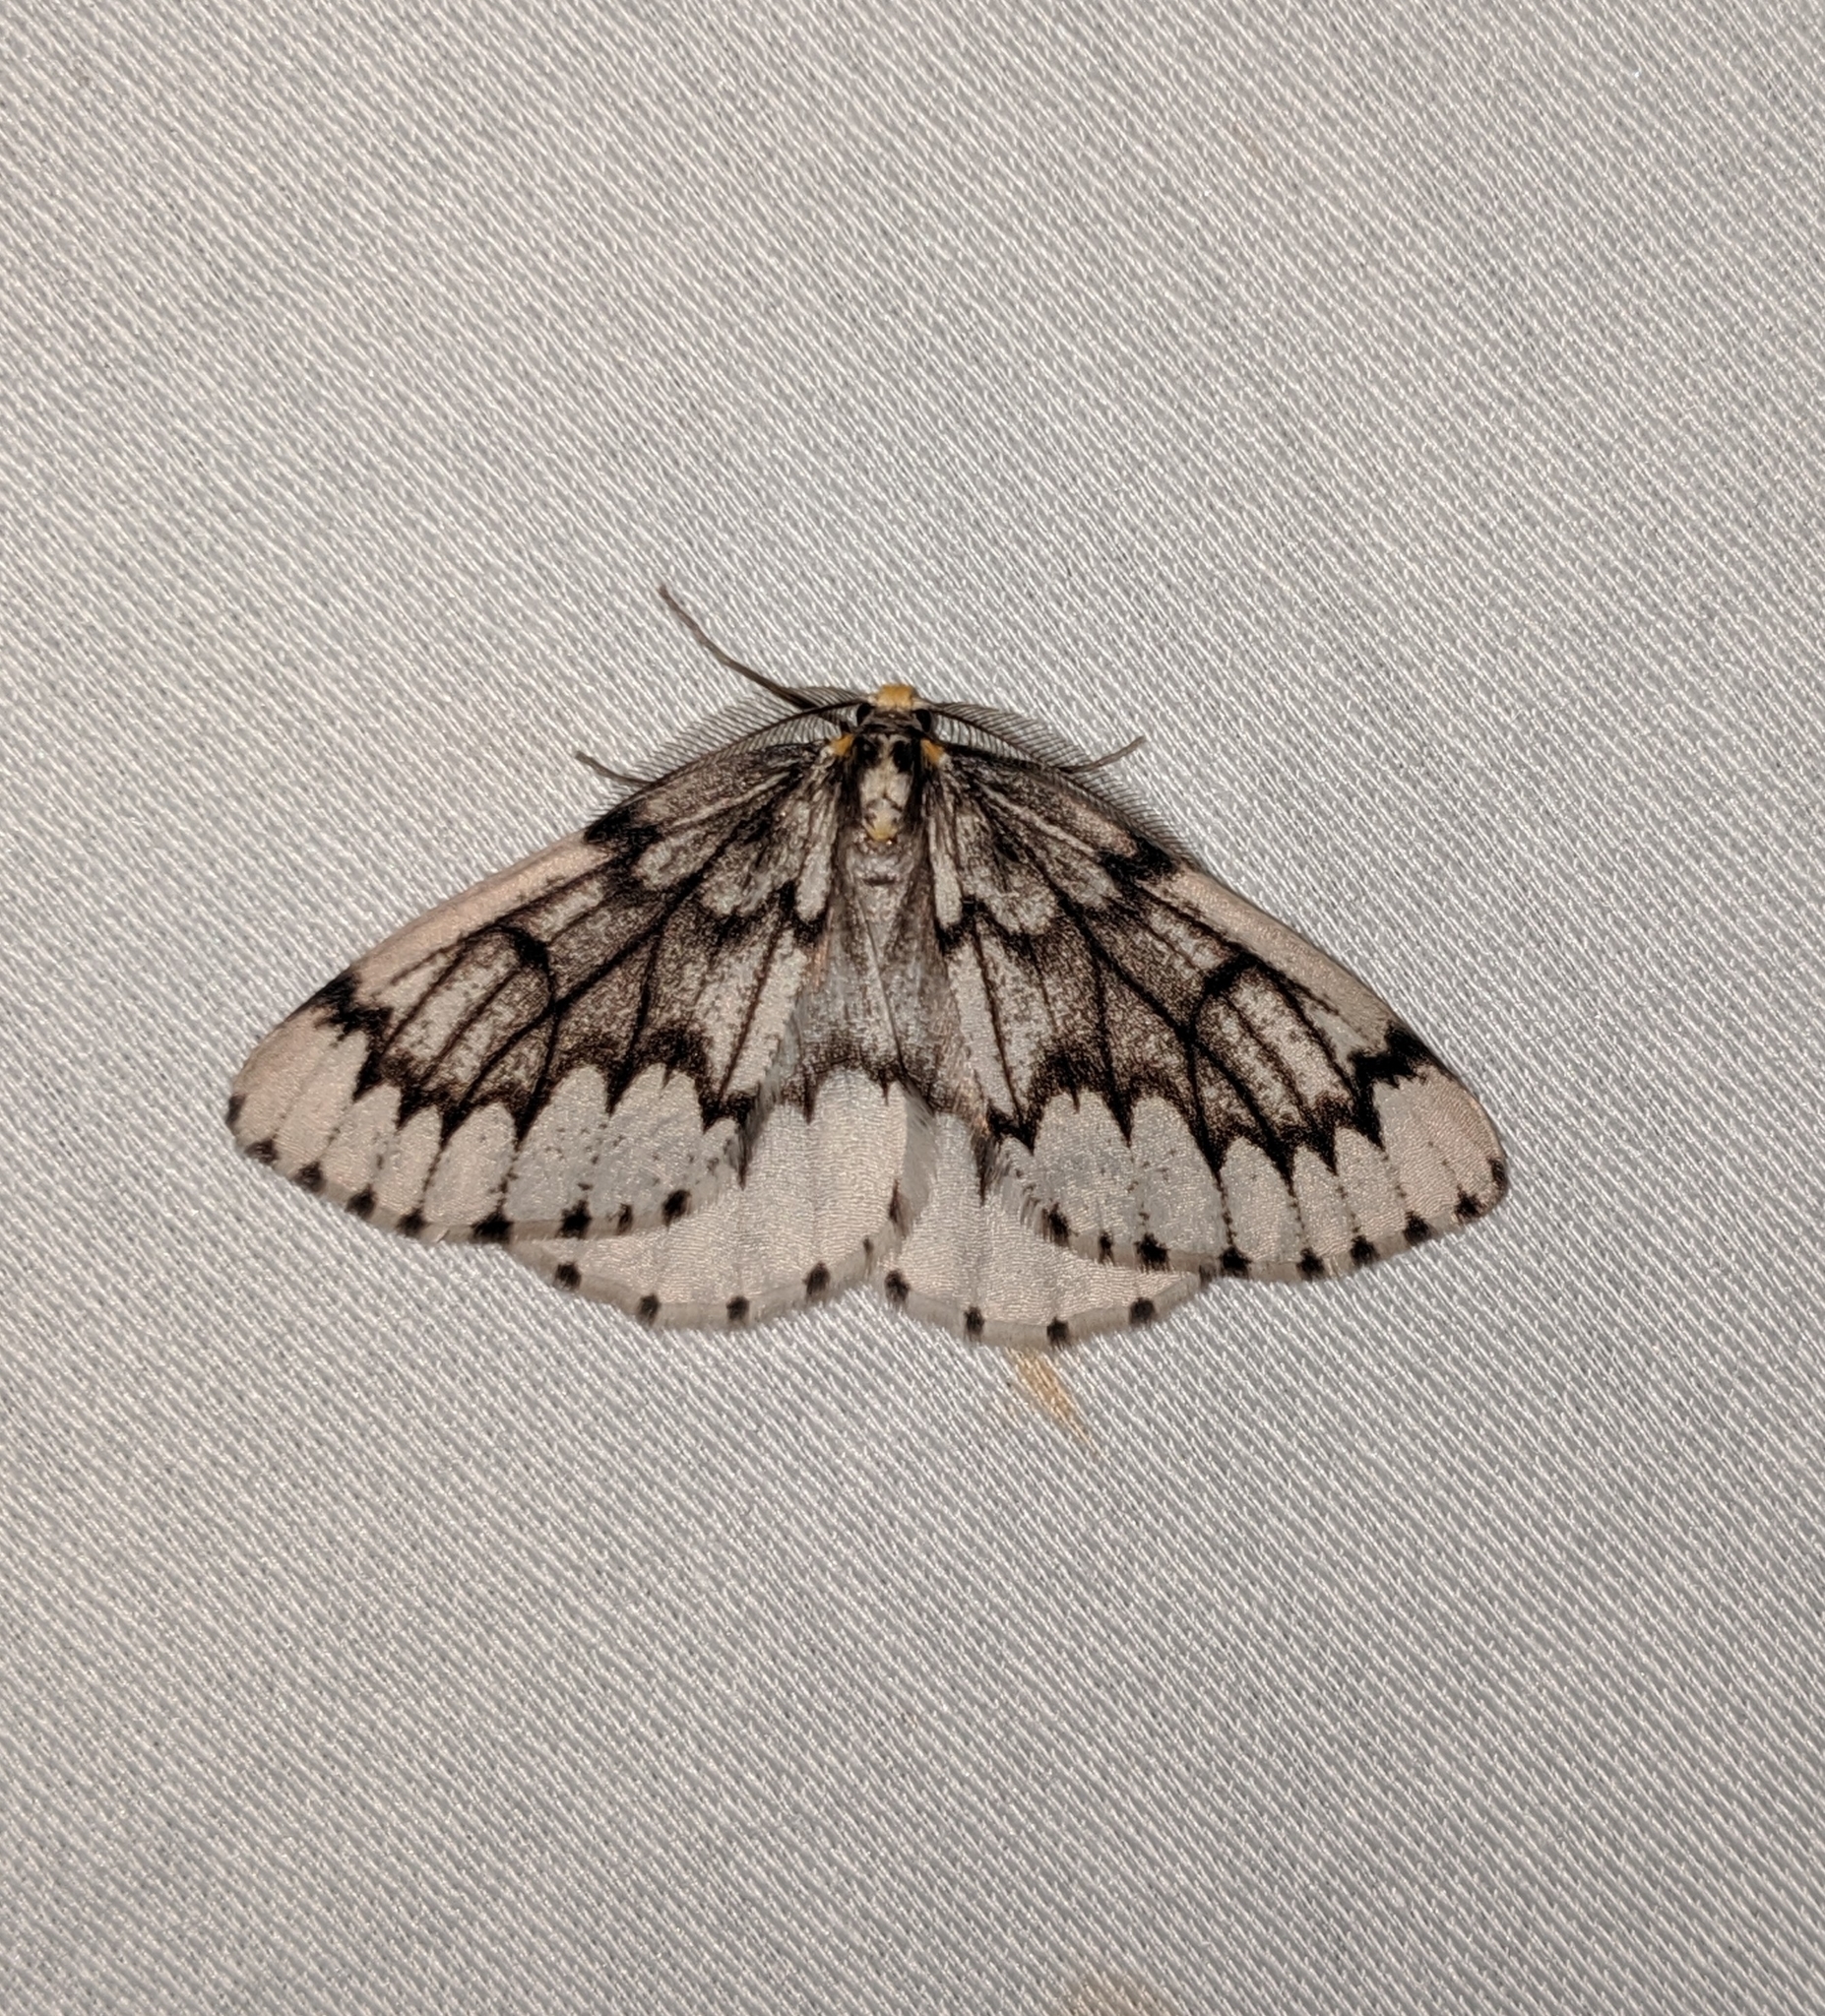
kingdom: Animalia
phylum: Arthropoda
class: Insecta
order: Lepidoptera
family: Geometridae
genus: Nepytia
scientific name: Nepytia phantasmaria
